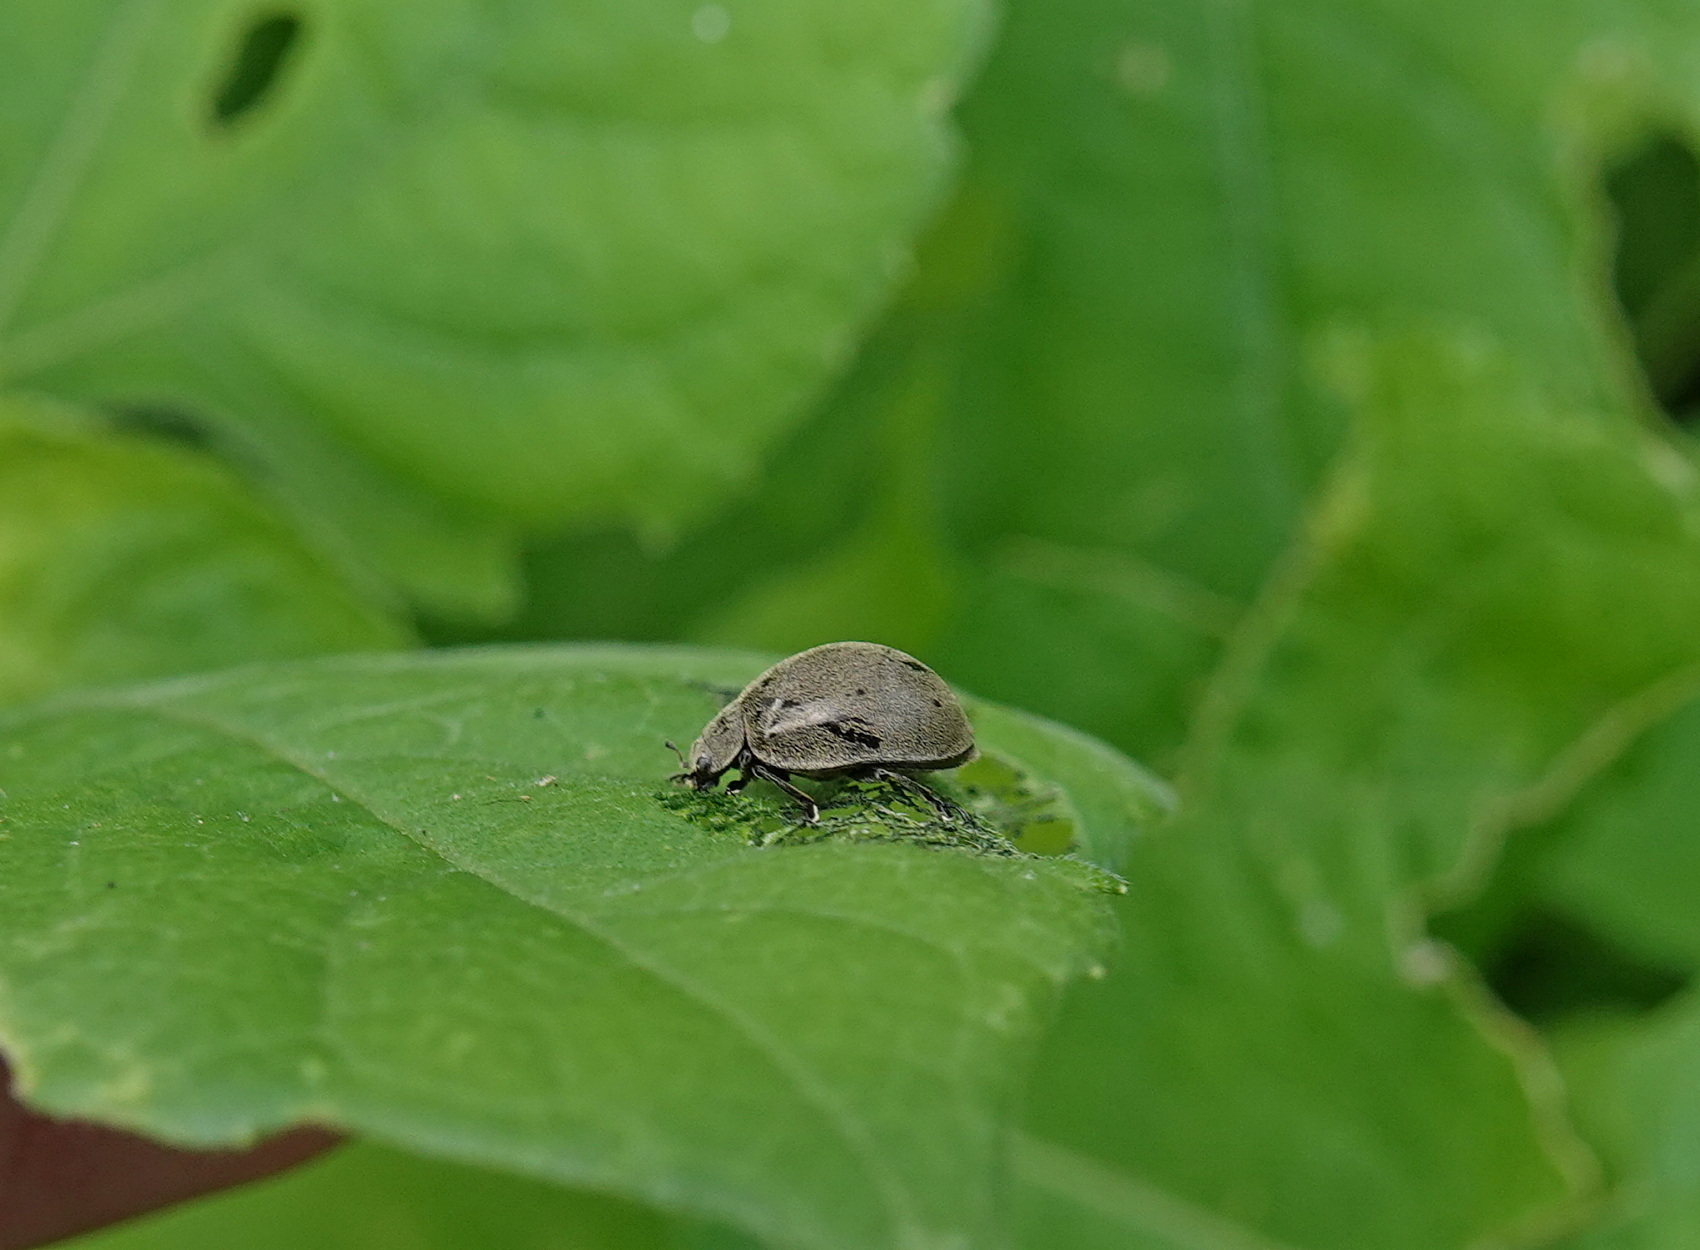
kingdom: Animalia
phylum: Arthropoda
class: Insecta
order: Coleoptera
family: Coccinellidae
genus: Epilachna
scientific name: Epilachna
